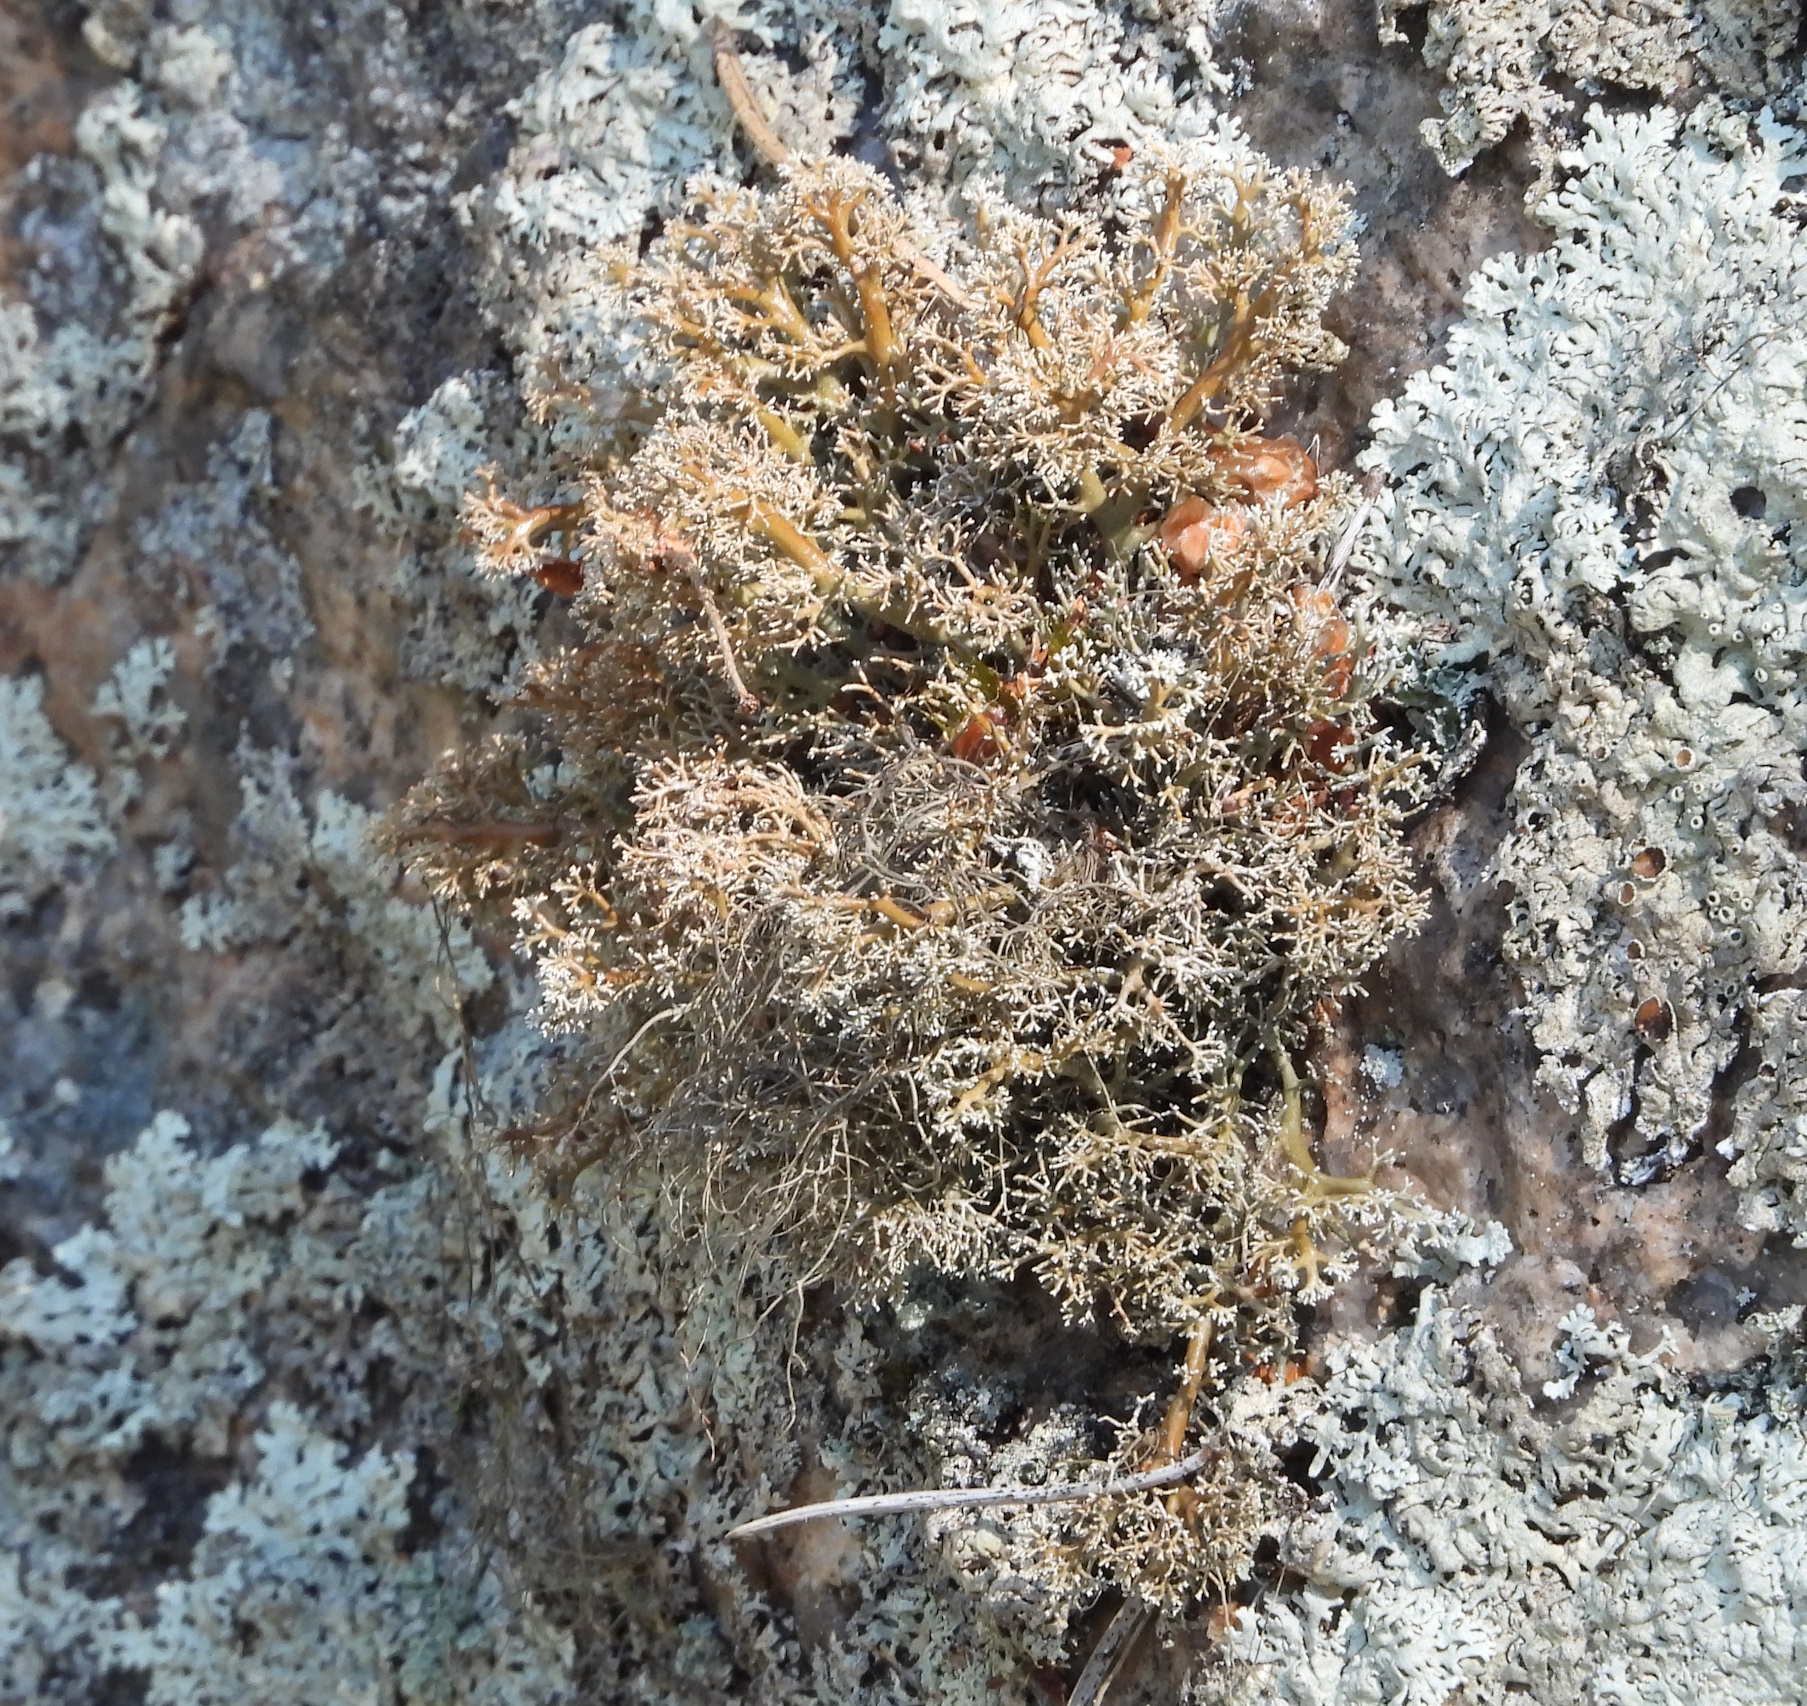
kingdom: Fungi
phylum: Ascomycota
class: Lecanoromycetes
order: Lecanorales
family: Sphaerophoraceae
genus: Sphaerophorus
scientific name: Sphaerophorus globosus
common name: Globe ball lichen
